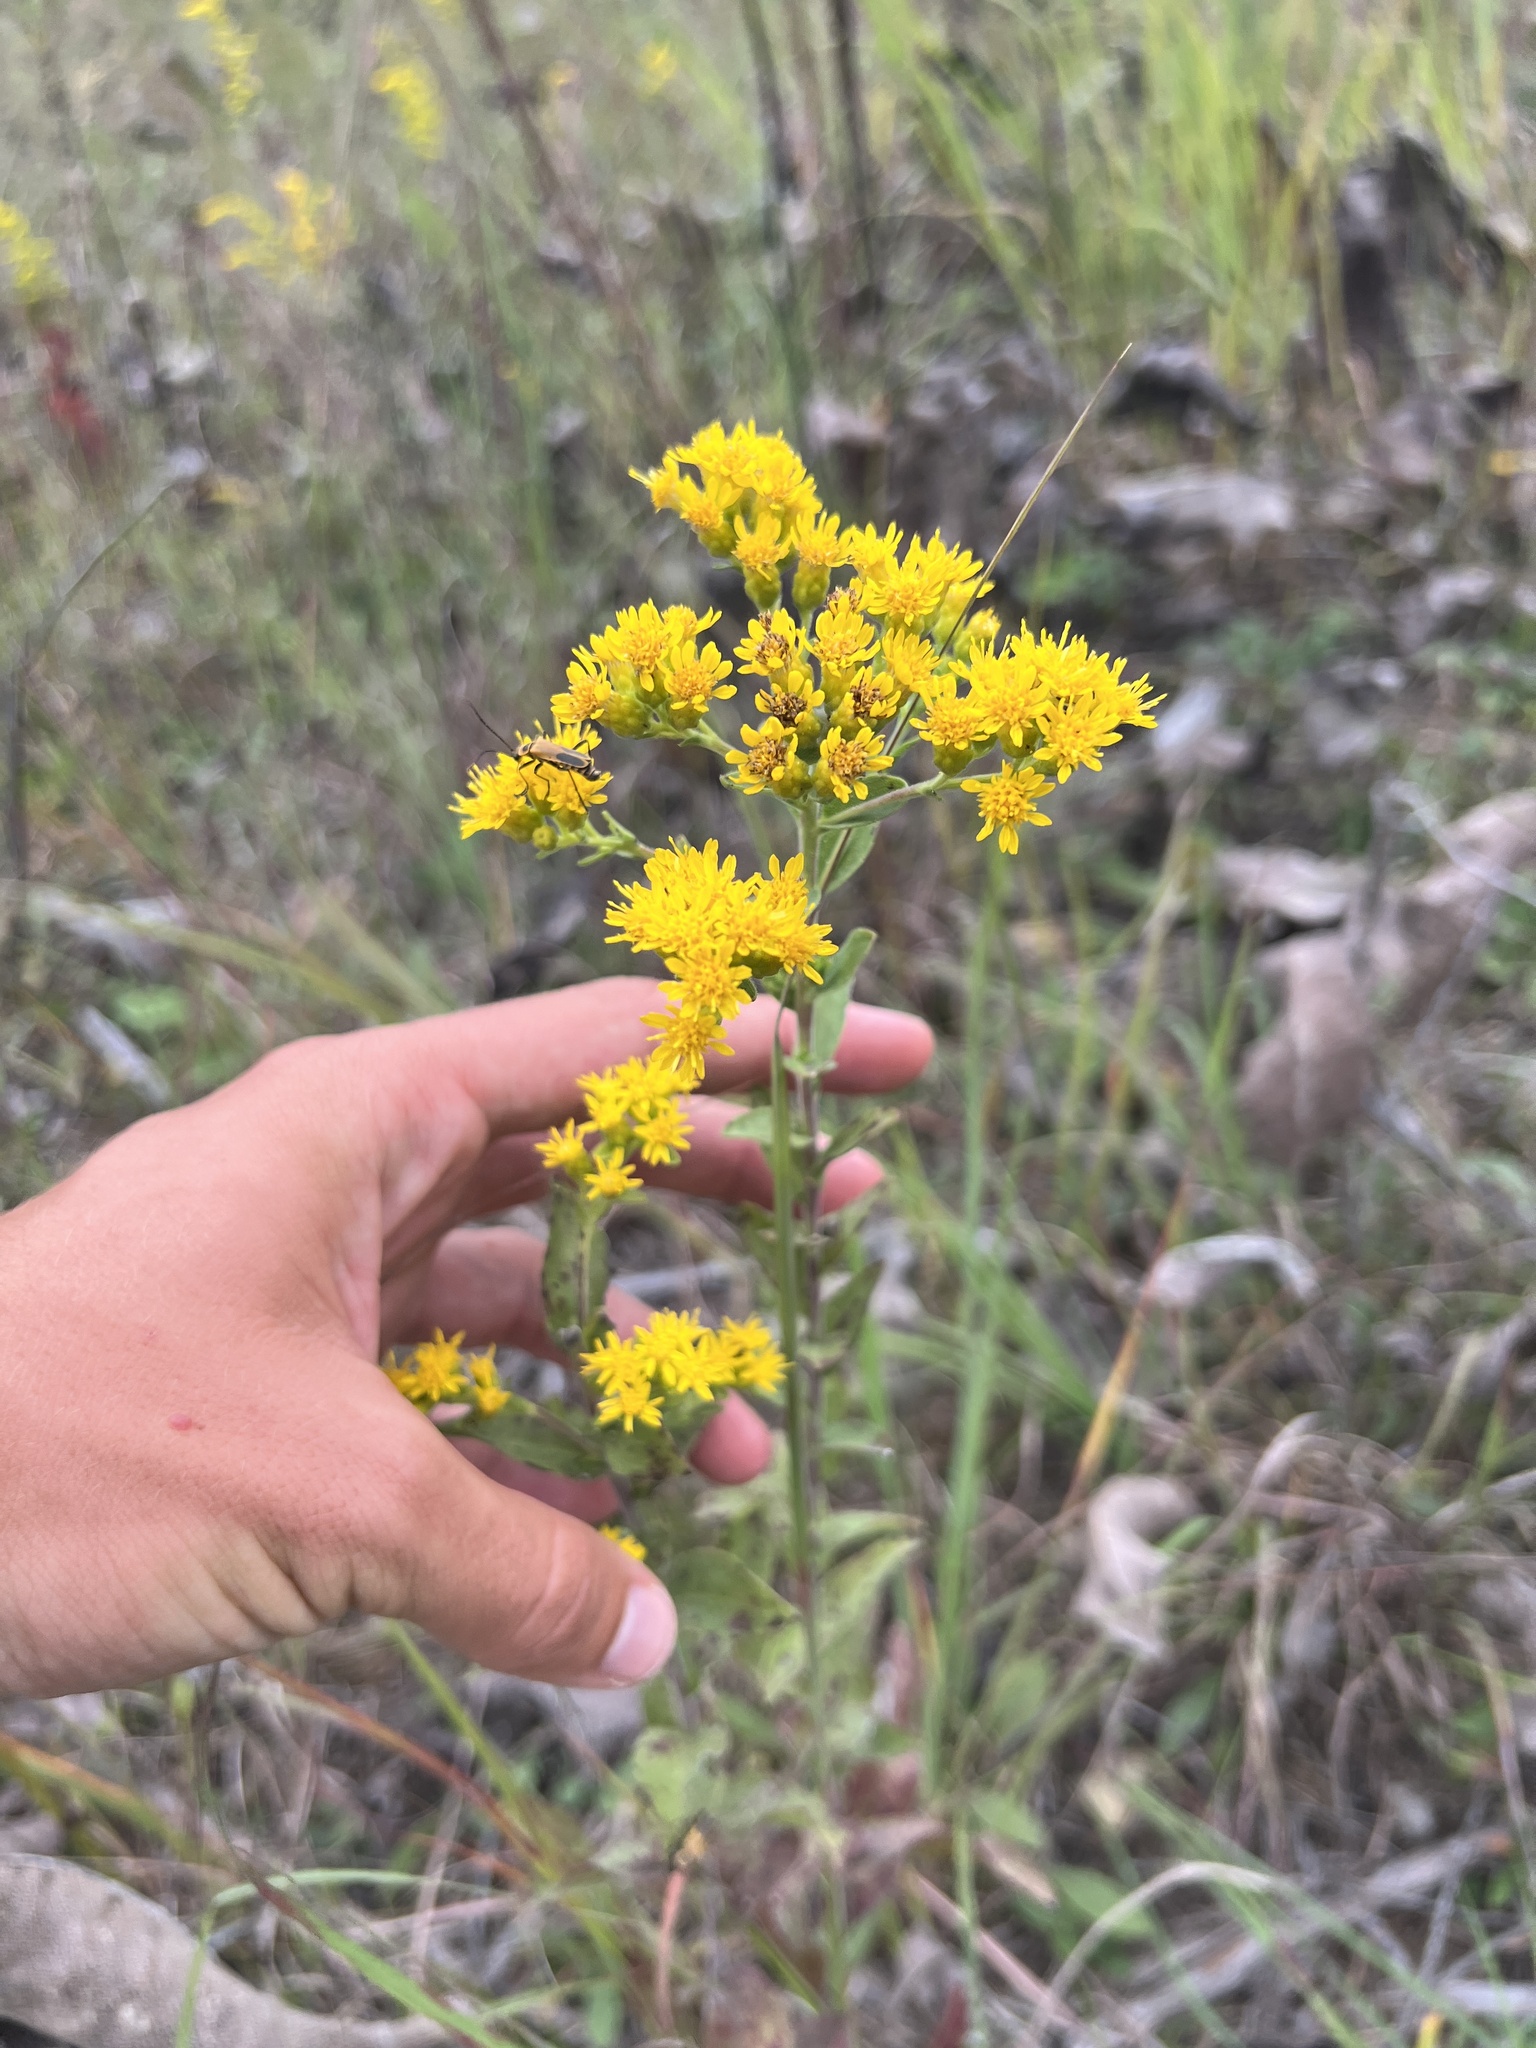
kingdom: Plantae
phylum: Tracheophyta
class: Magnoliopsida
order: Asterales
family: Asteraceae
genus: Solidago
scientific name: Solidago rigida
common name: Rigid goldenrod
